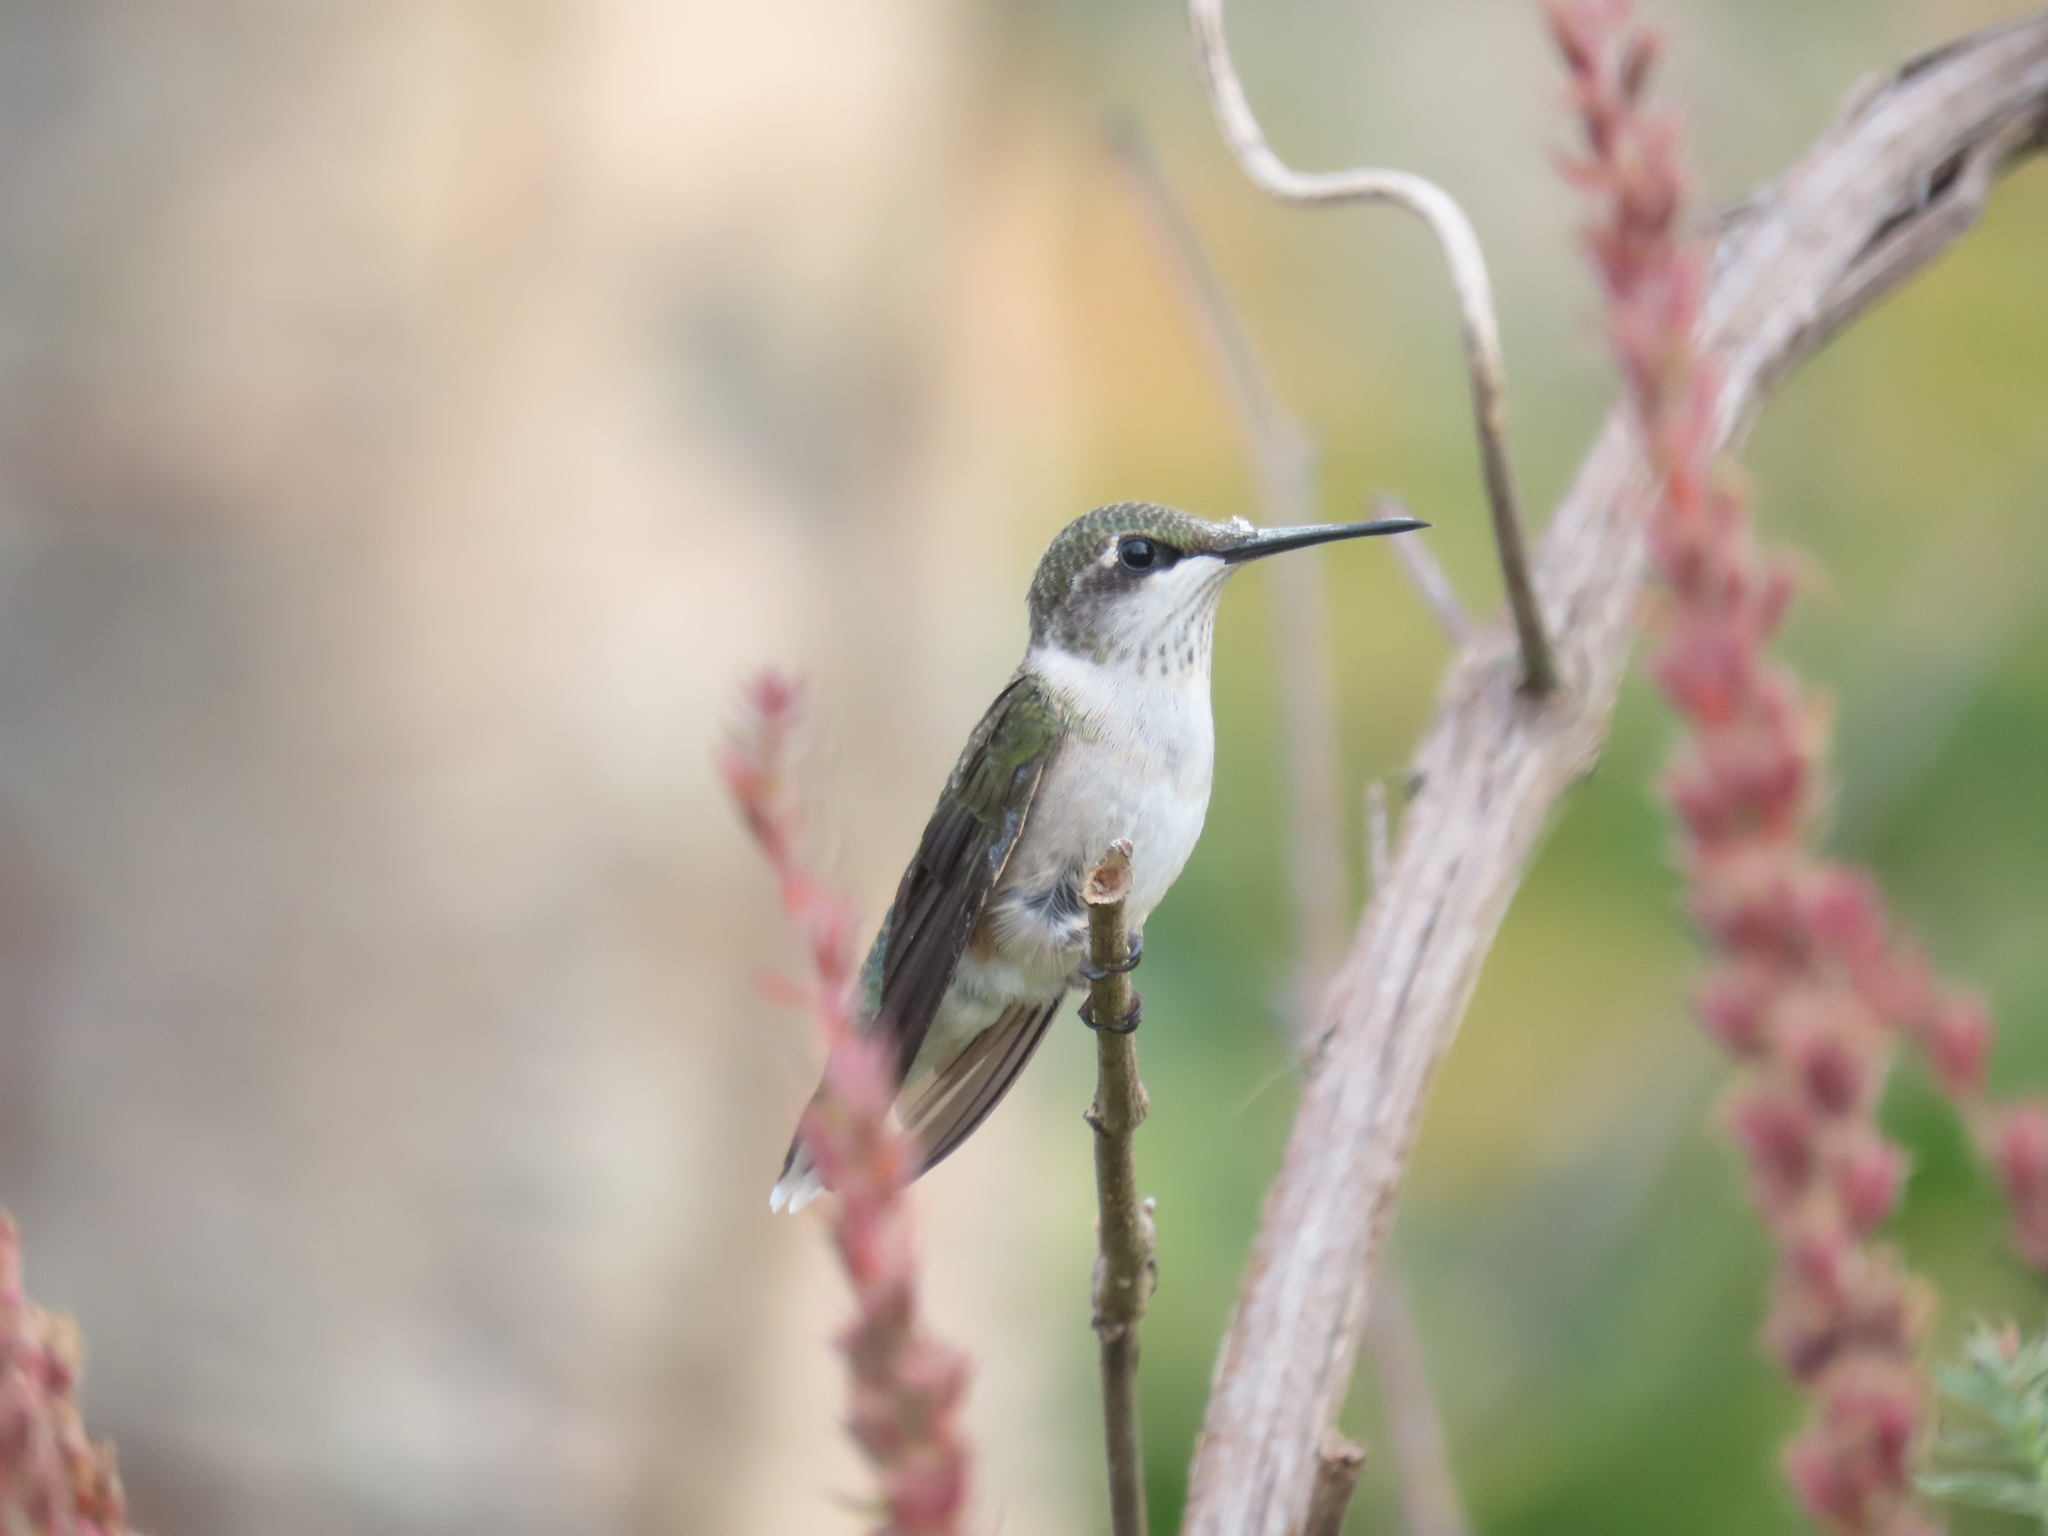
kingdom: Animalia
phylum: Chordata
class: Aves
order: Apodiformes
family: Trochilidae
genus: Archilochus
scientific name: Archilochus colubris
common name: Ruby-throated hummingbird
